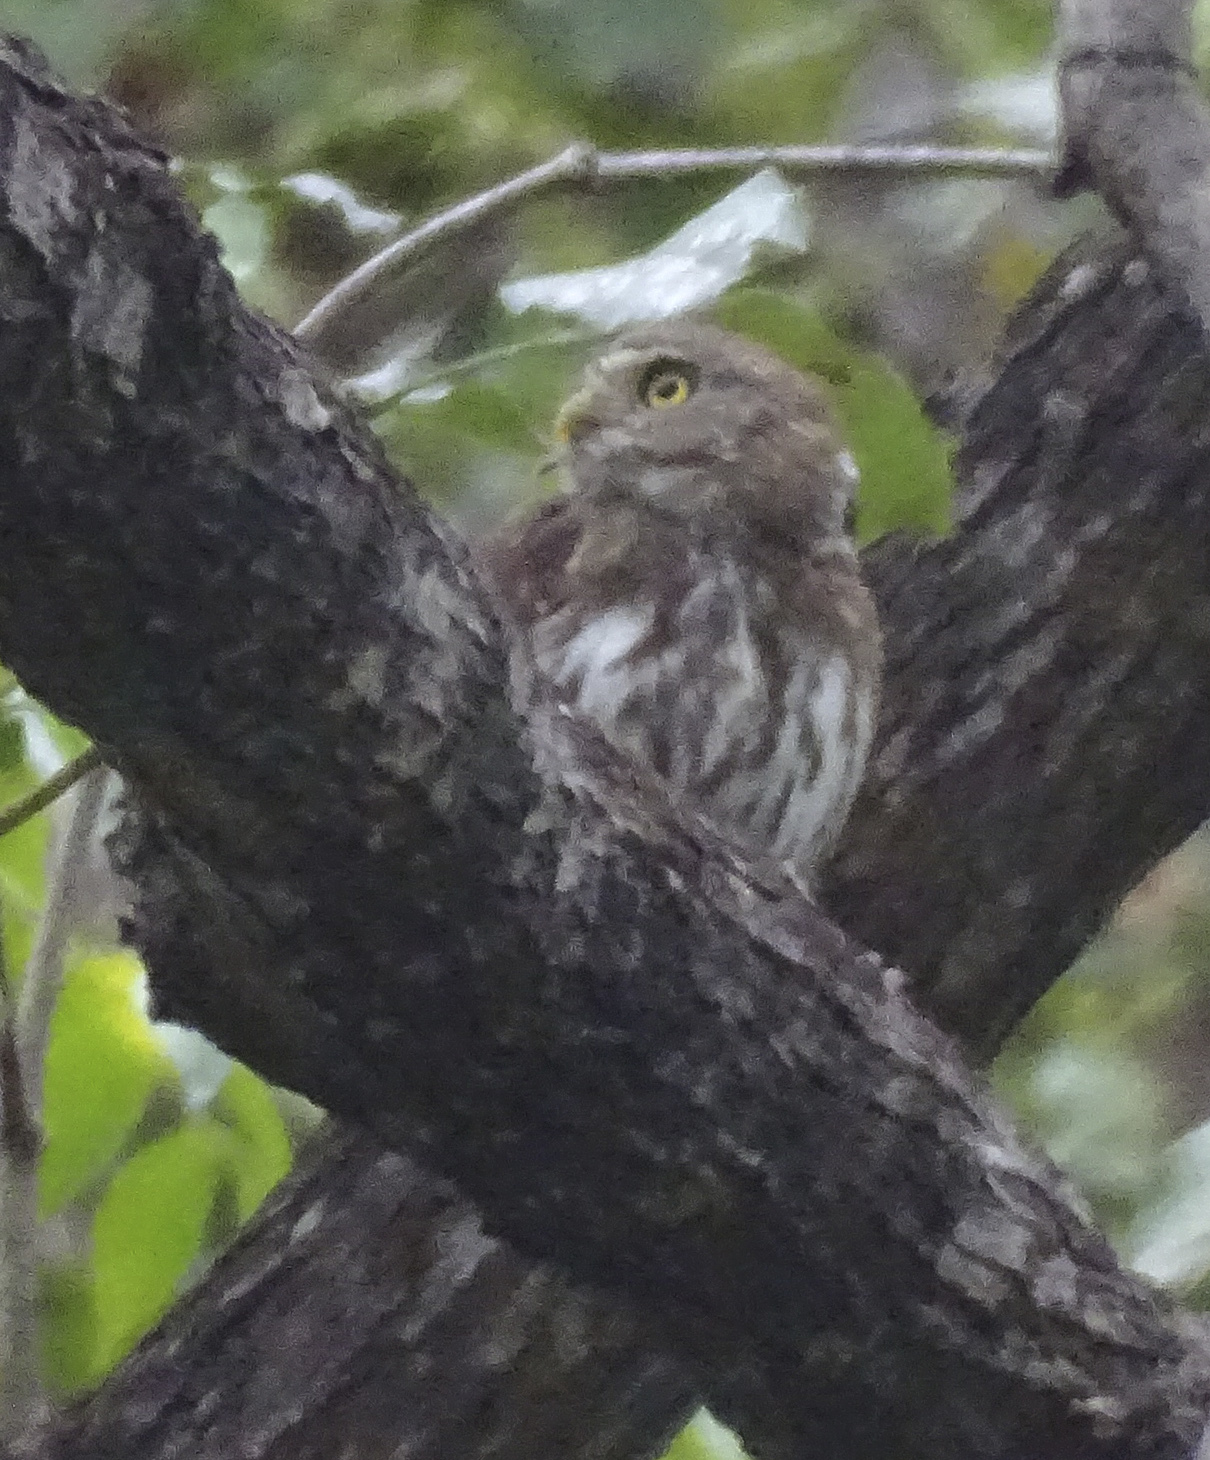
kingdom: Animalia
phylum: Chordata
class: Aves
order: Strigiformes
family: Strigidae
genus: Glaucidium
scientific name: Glaucidium brasilianum
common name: Ferruginous pygmy-owl
